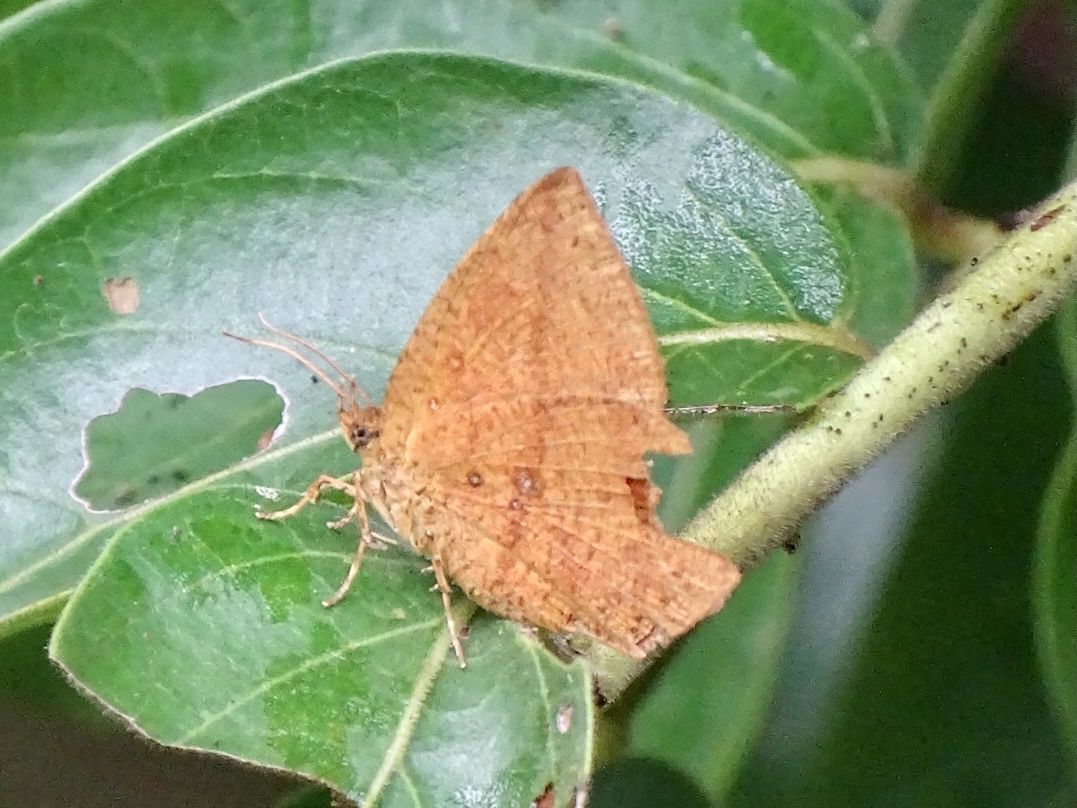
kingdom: Animalia
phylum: Arthropoda
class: Insecta
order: Lepidoptera
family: Callidulidae
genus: Tetragonus
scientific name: Tetragonus catamitus
